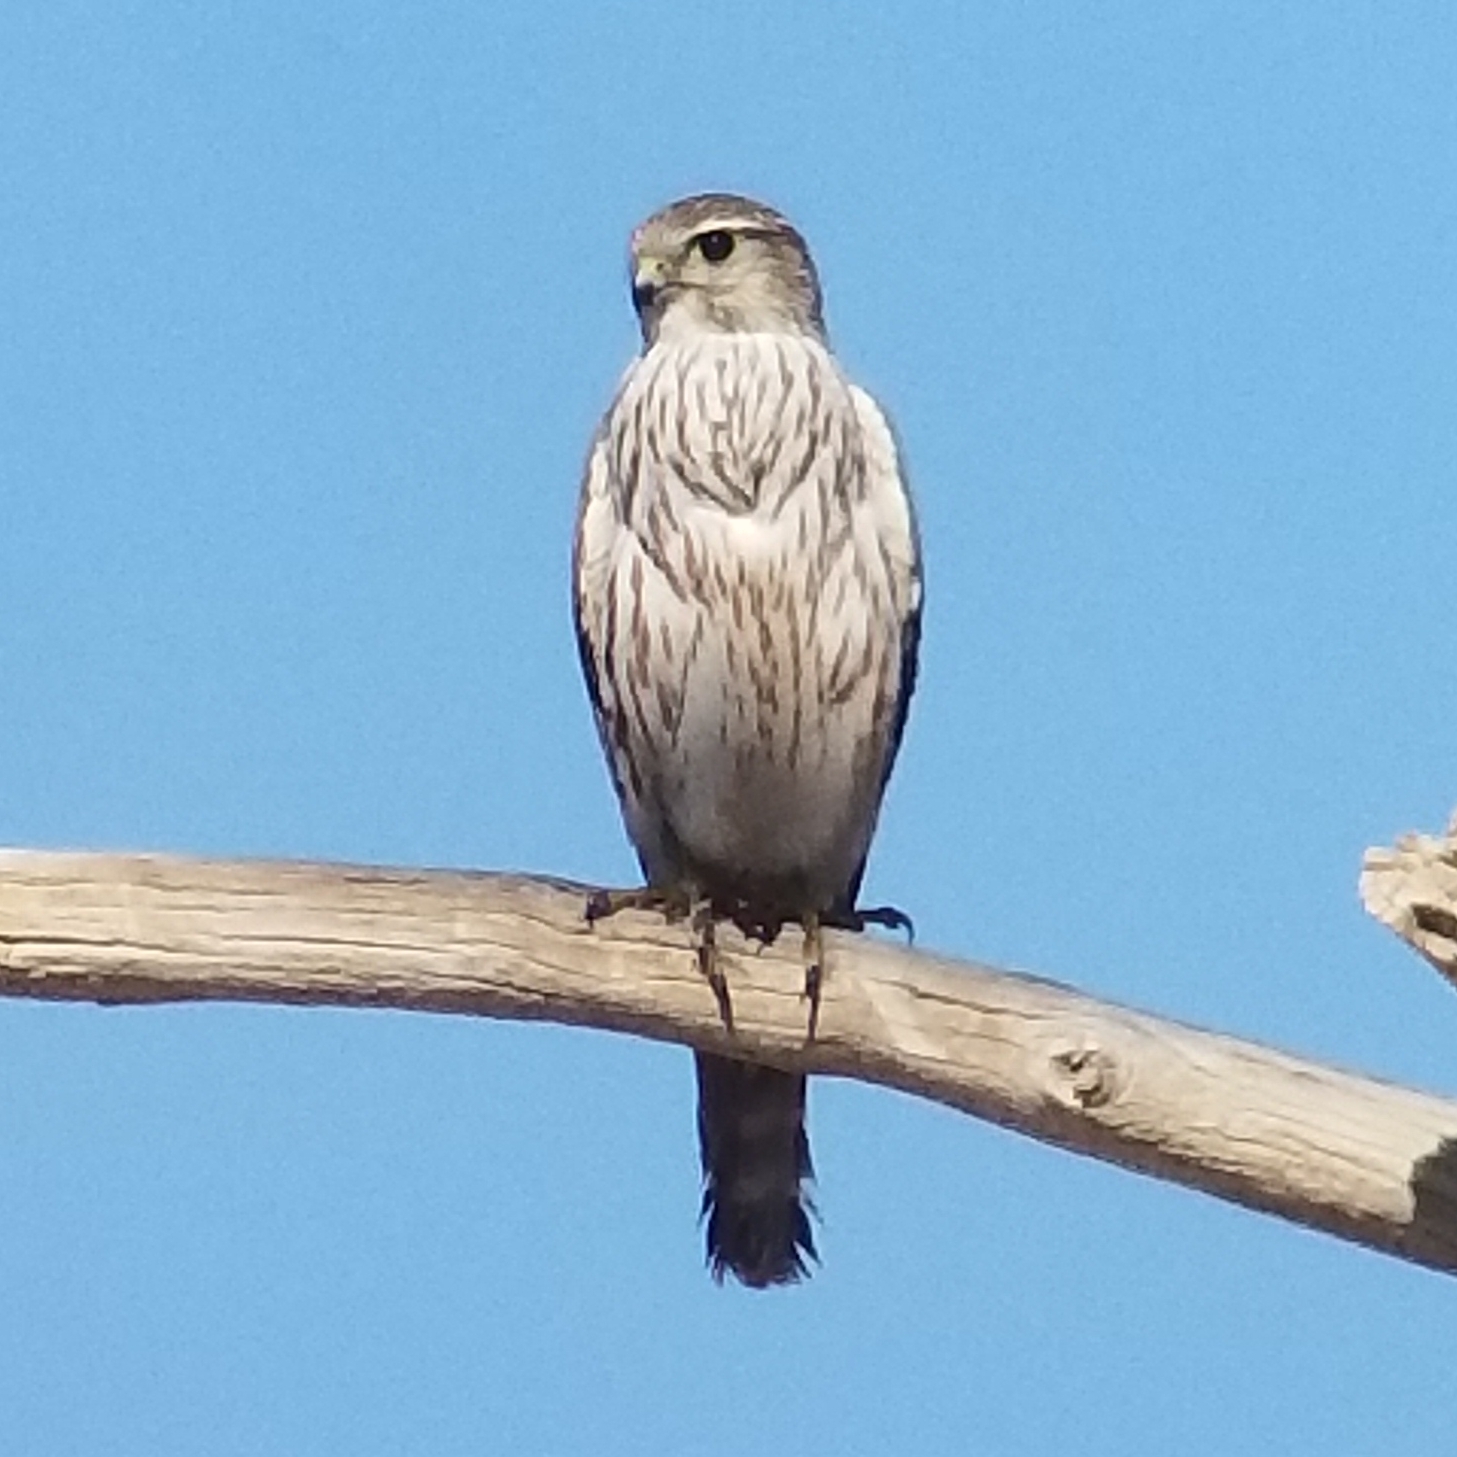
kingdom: Animalia
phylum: Chordata
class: Aves
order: Falconiformes
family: Falconidae
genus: Falco
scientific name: Falco columbarius
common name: Merlin
